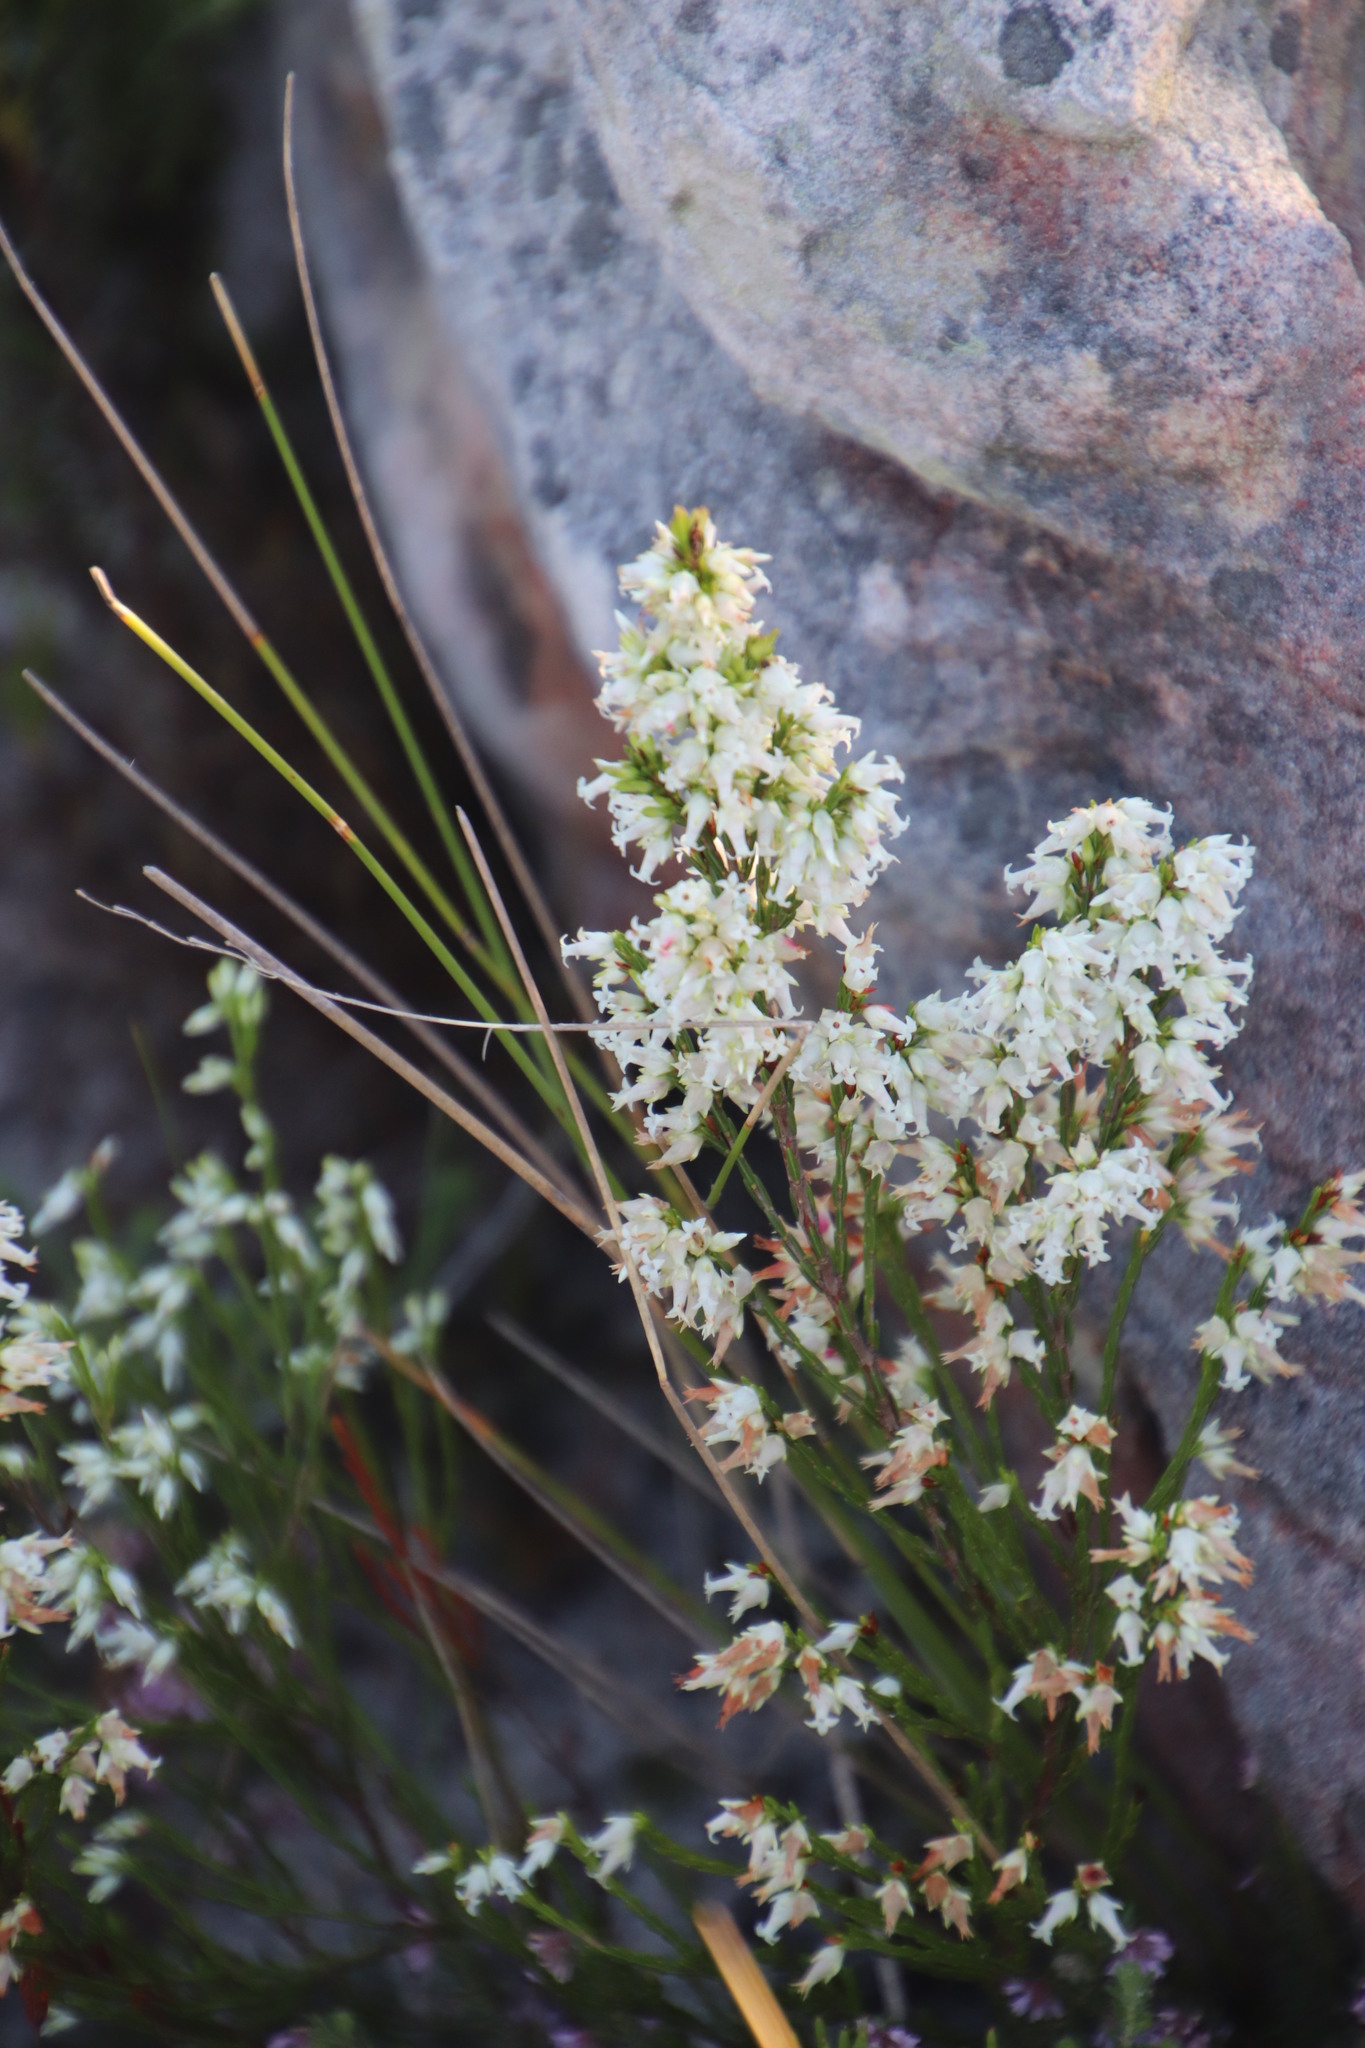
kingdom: Plantae
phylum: Tracheophyta
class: Magnoliopsida
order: Ericales
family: Ericaceae
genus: Erica
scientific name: Erica lutea
